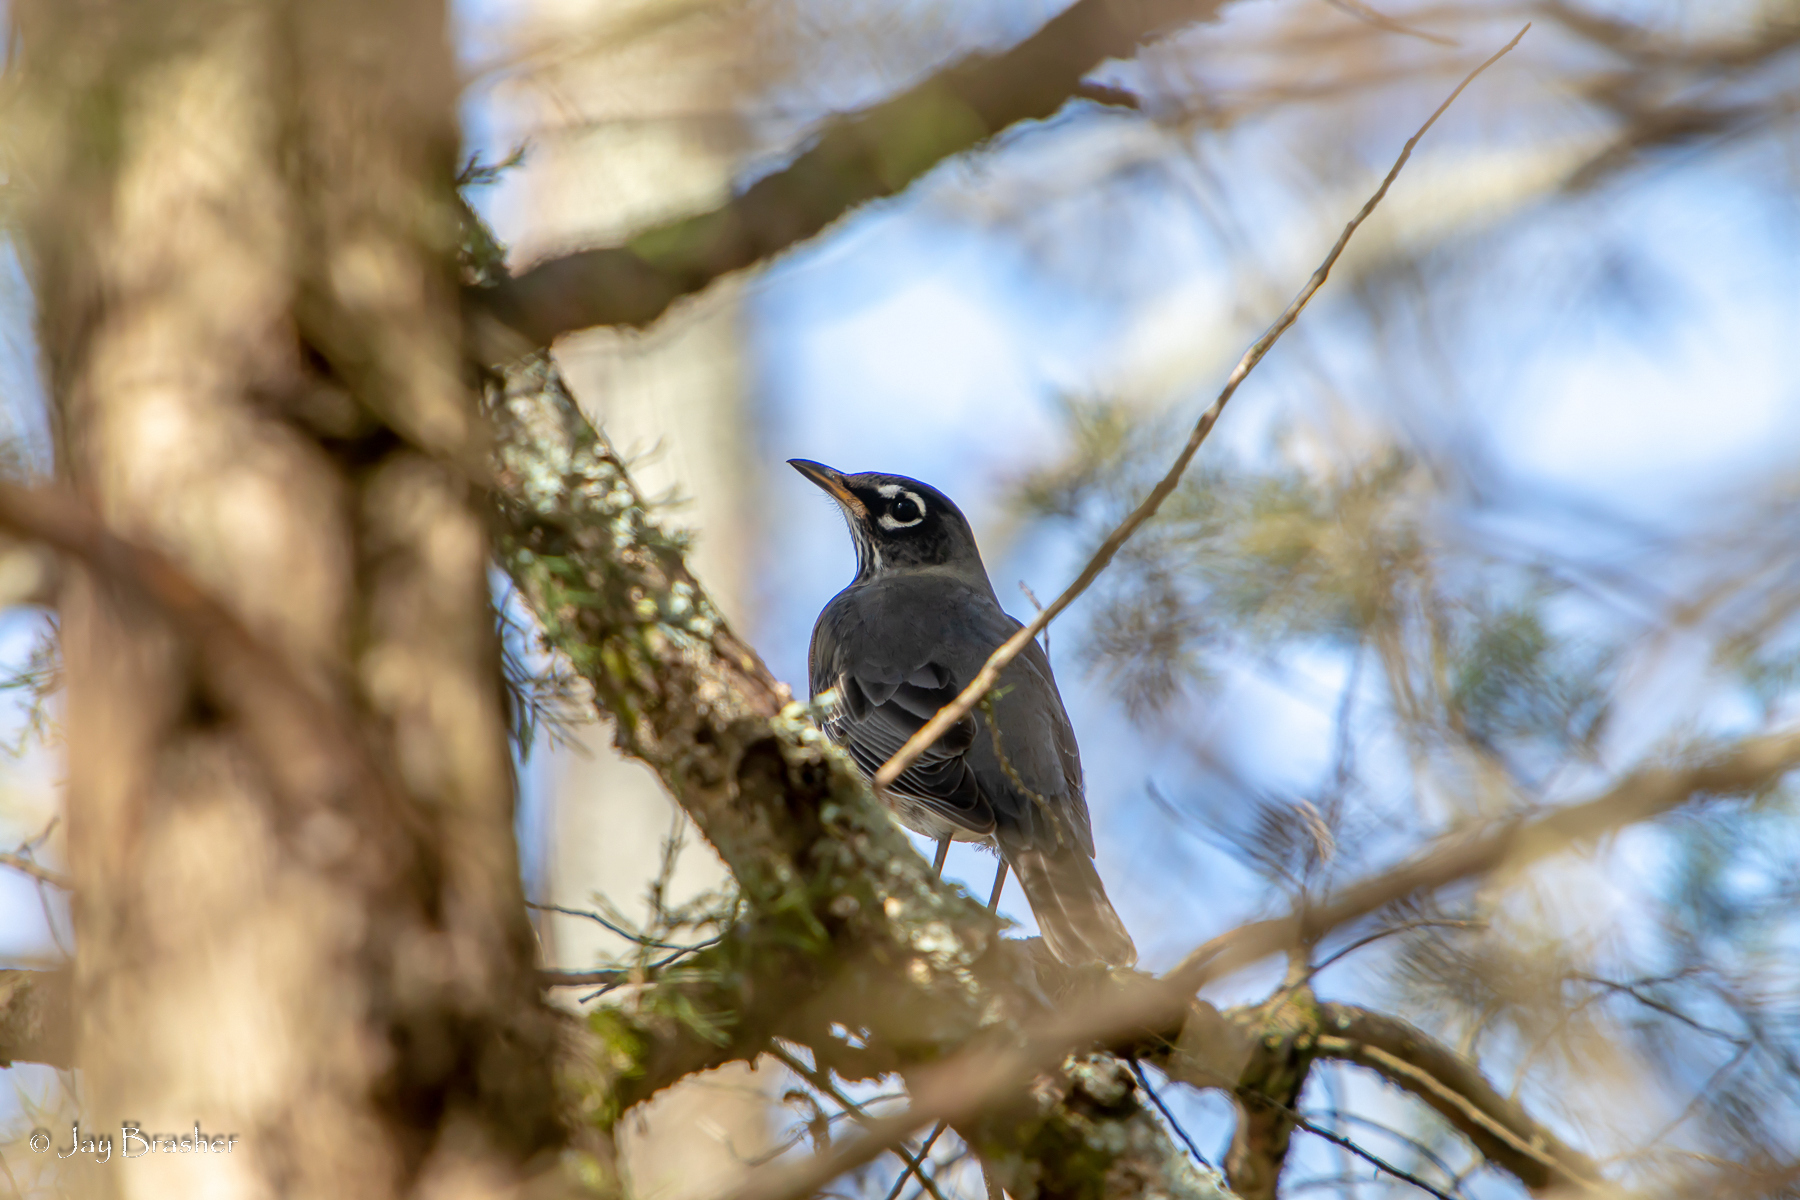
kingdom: Animalia
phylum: Chordata
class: Aves
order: Passeriformes
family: Turdidae
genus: Turdus
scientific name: Turdus migratorius
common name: American robin
